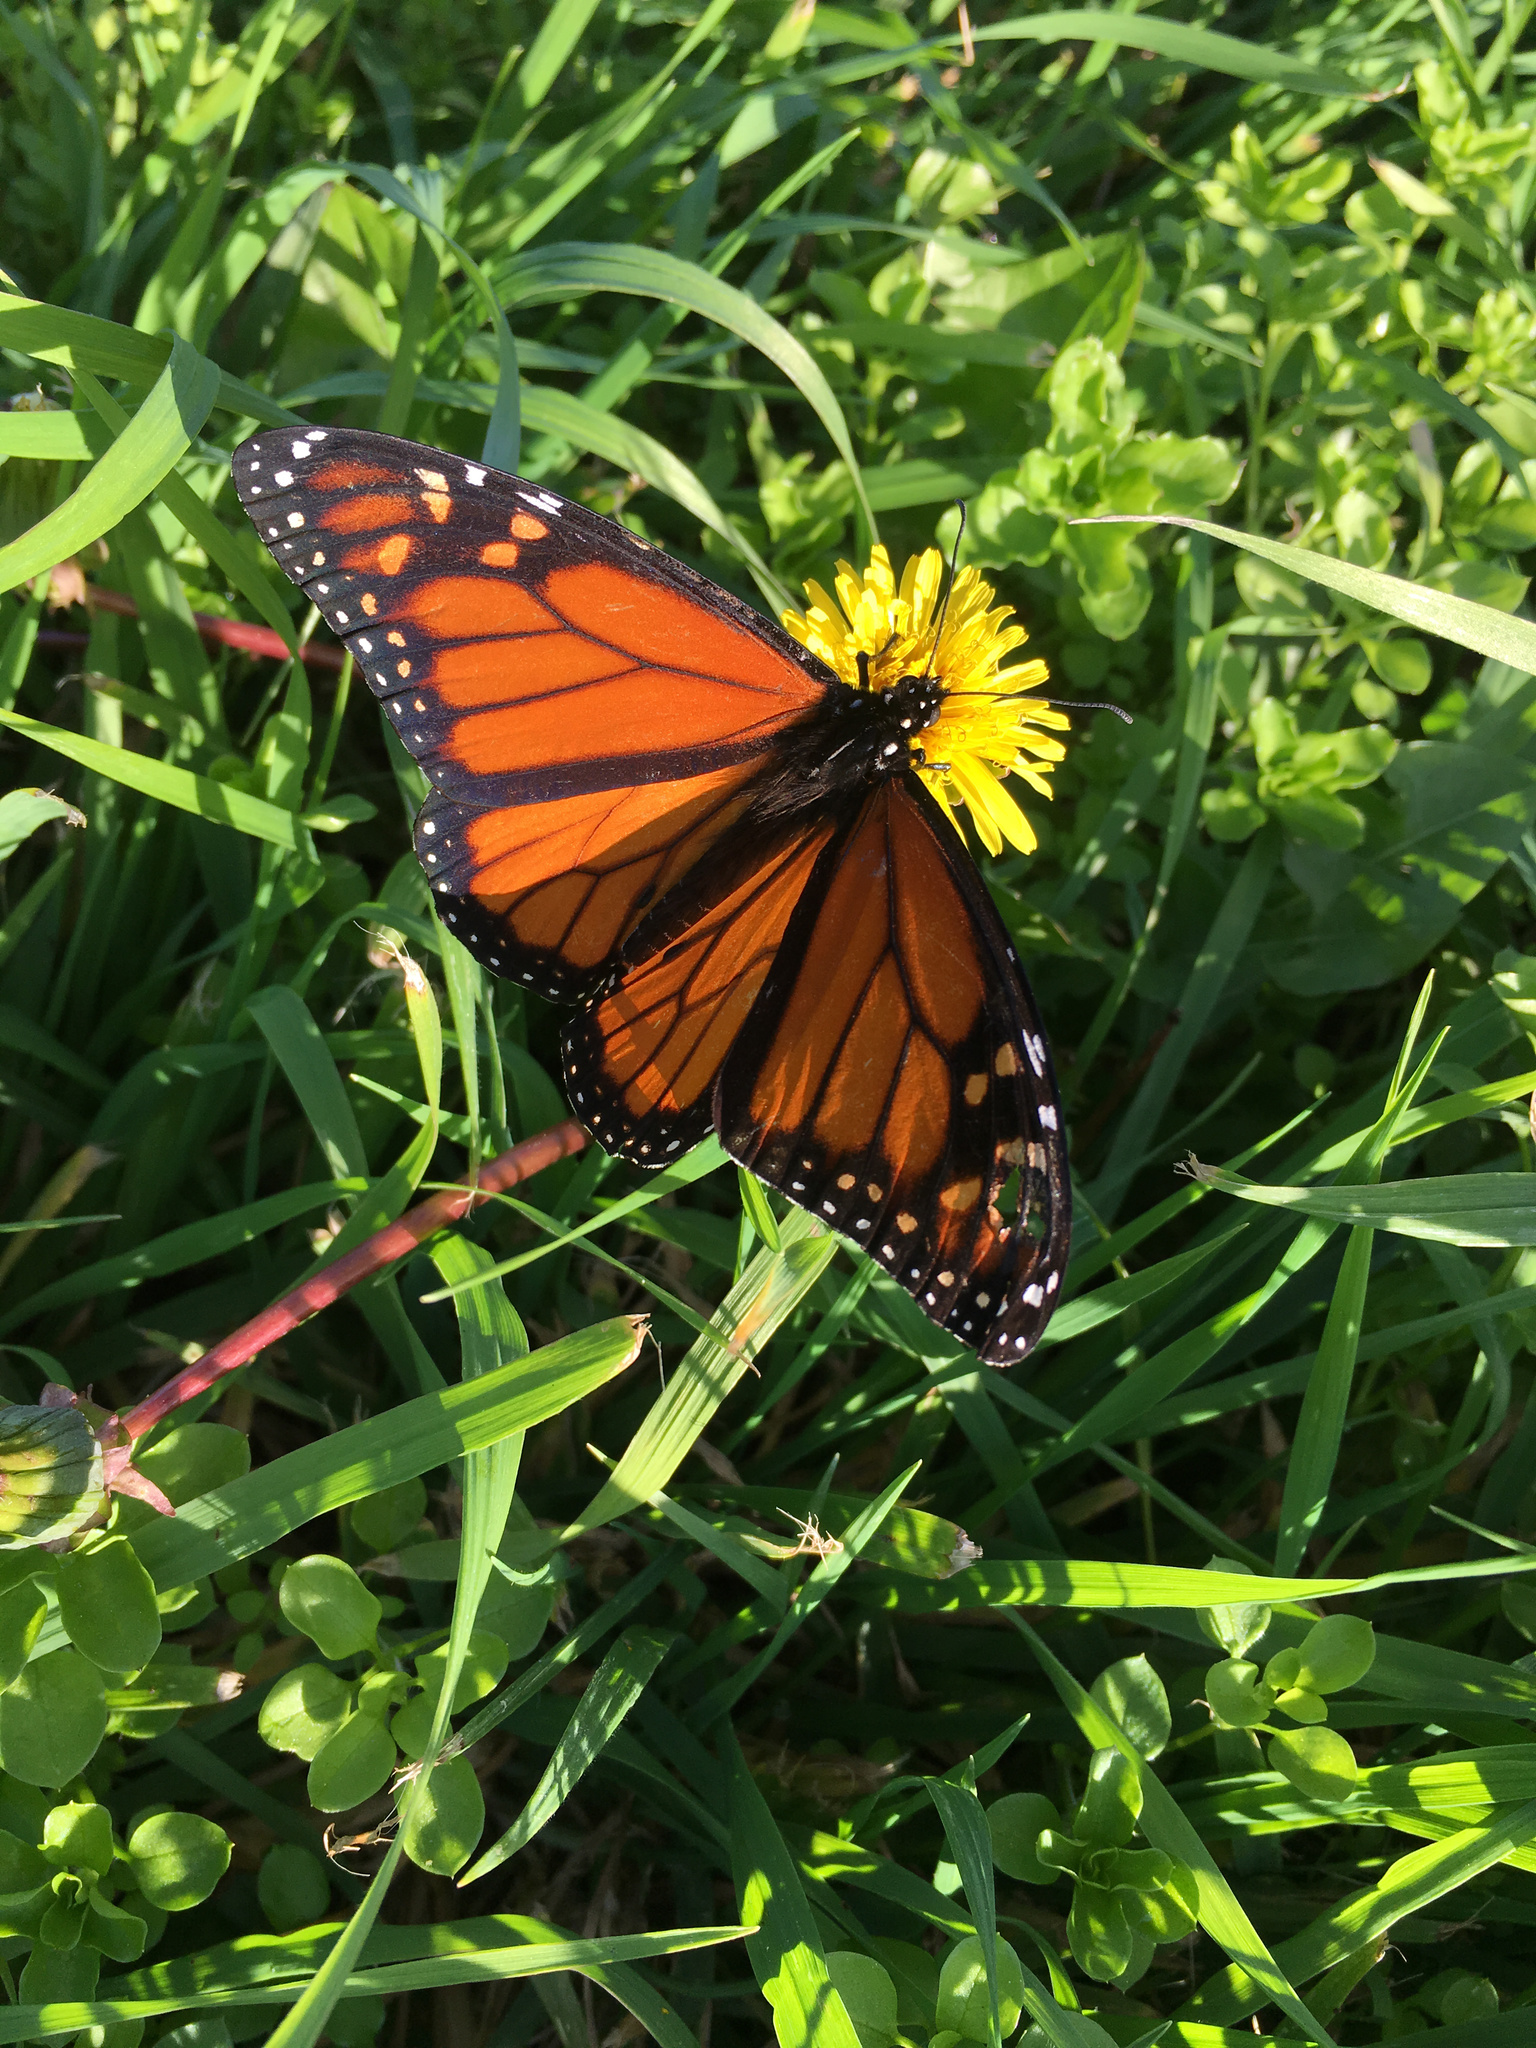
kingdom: Animalia
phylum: Arthropoda
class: Insecta
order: Lepidoptera
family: Nymphalidae
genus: Danaus
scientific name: Danaus plexippus
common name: Monarch
